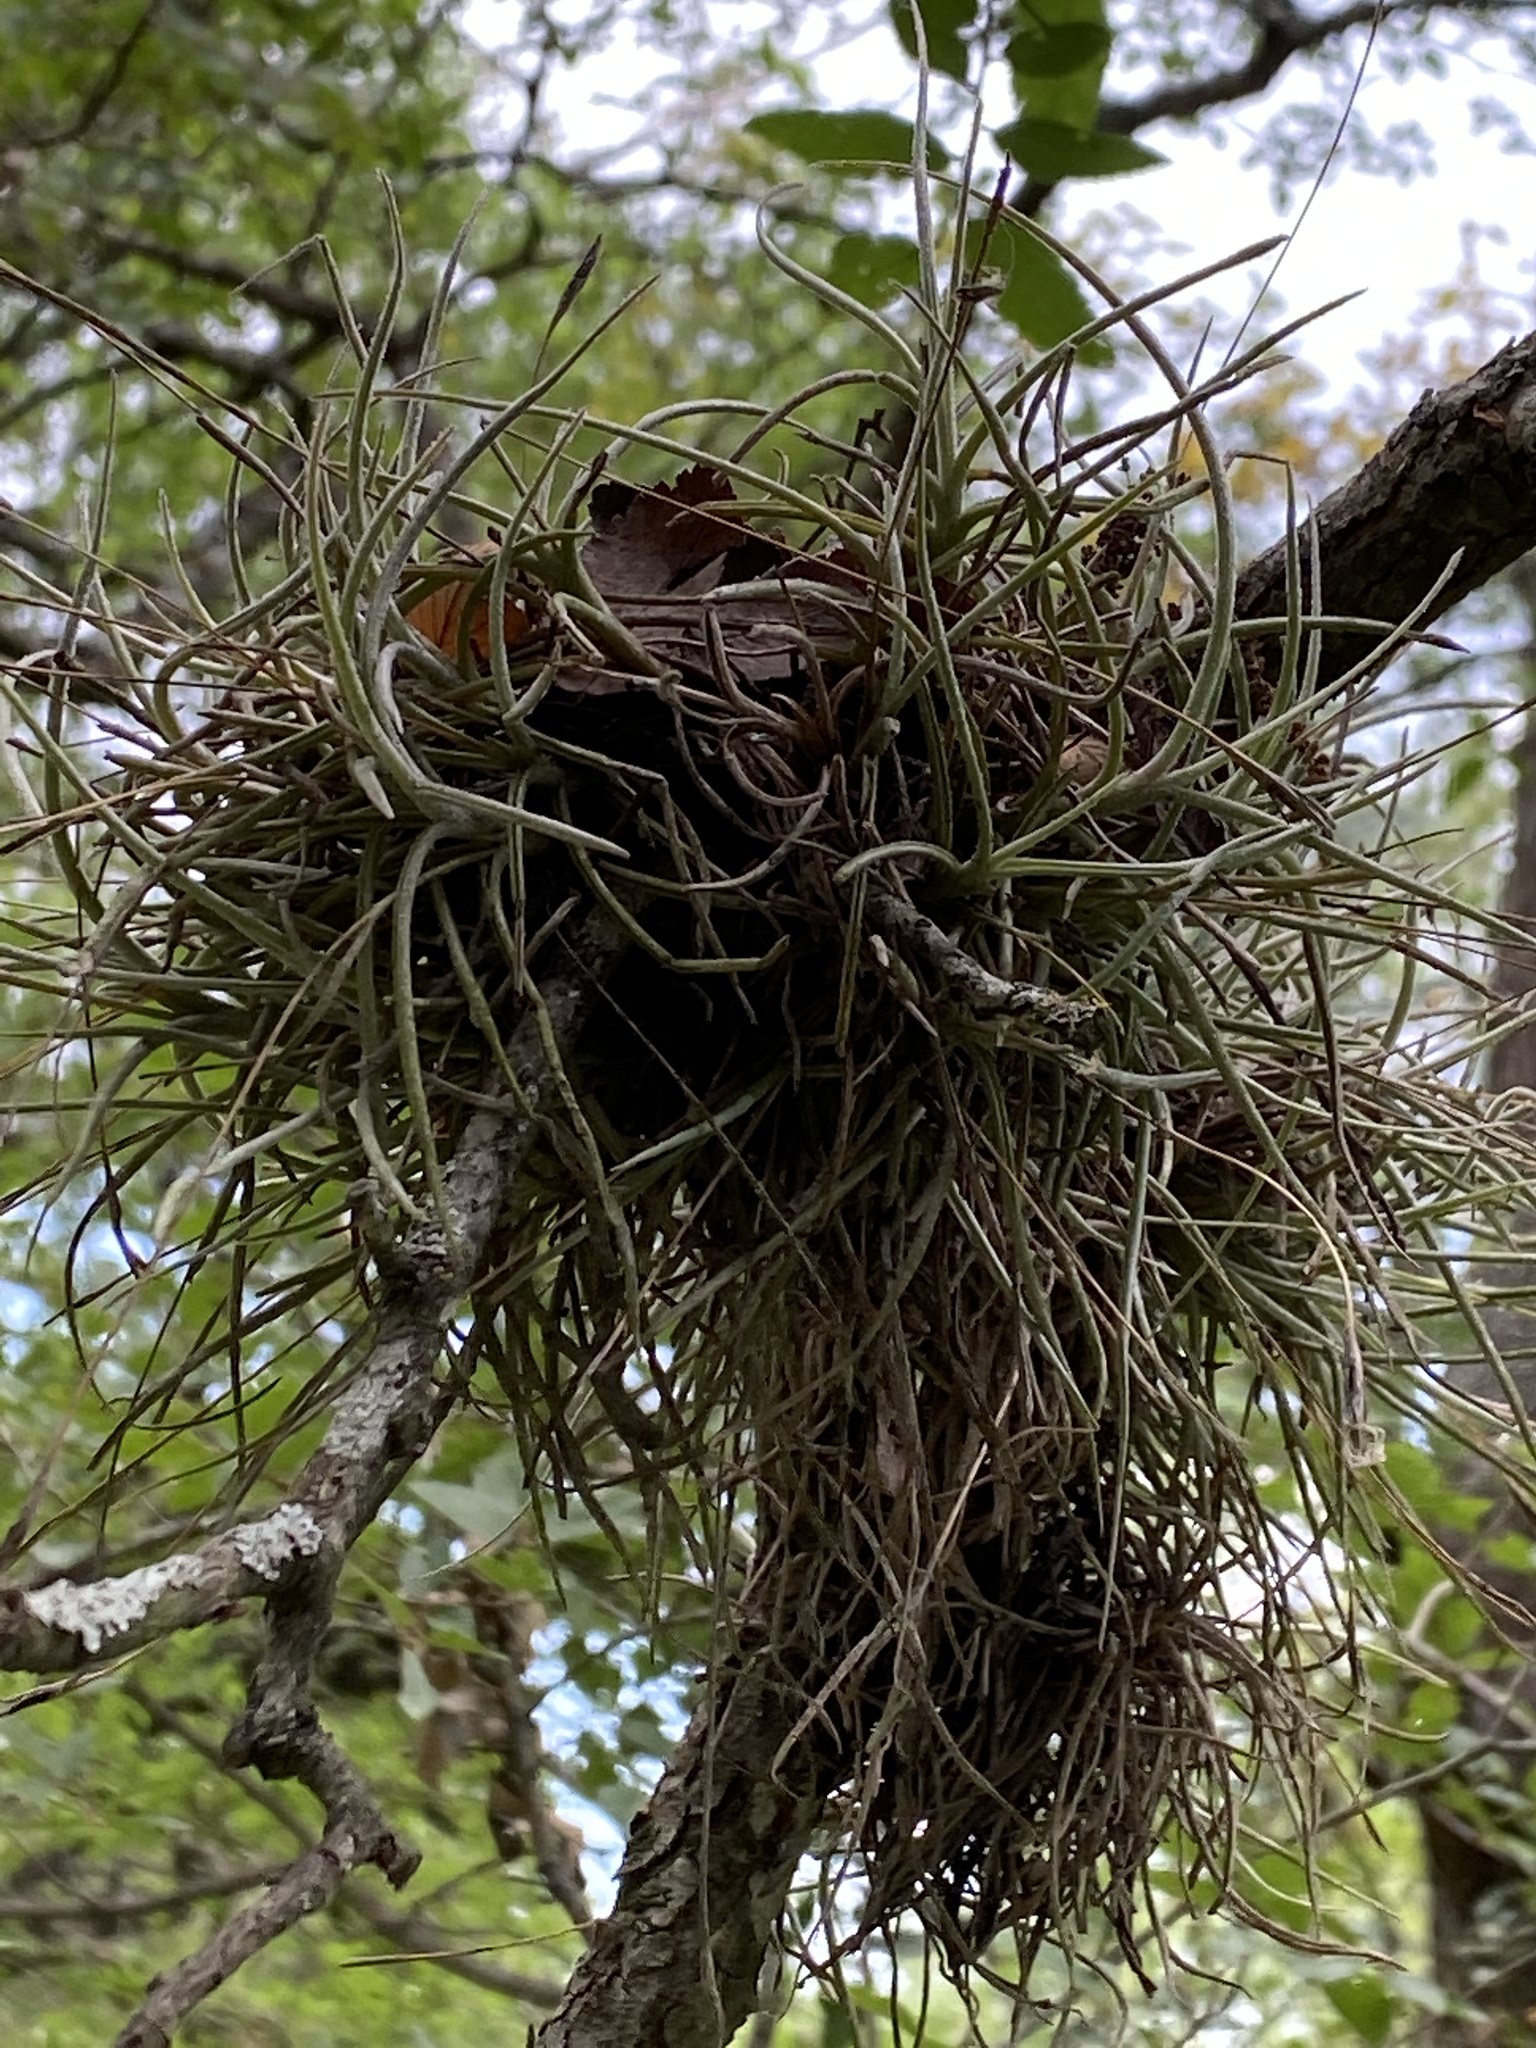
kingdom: Plantae
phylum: Tracheophyta
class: Liliopsida
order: Poales
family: Bromeliaceae
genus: Tillandsia
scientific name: Tillandsia recurvata
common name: Small ballmoss
